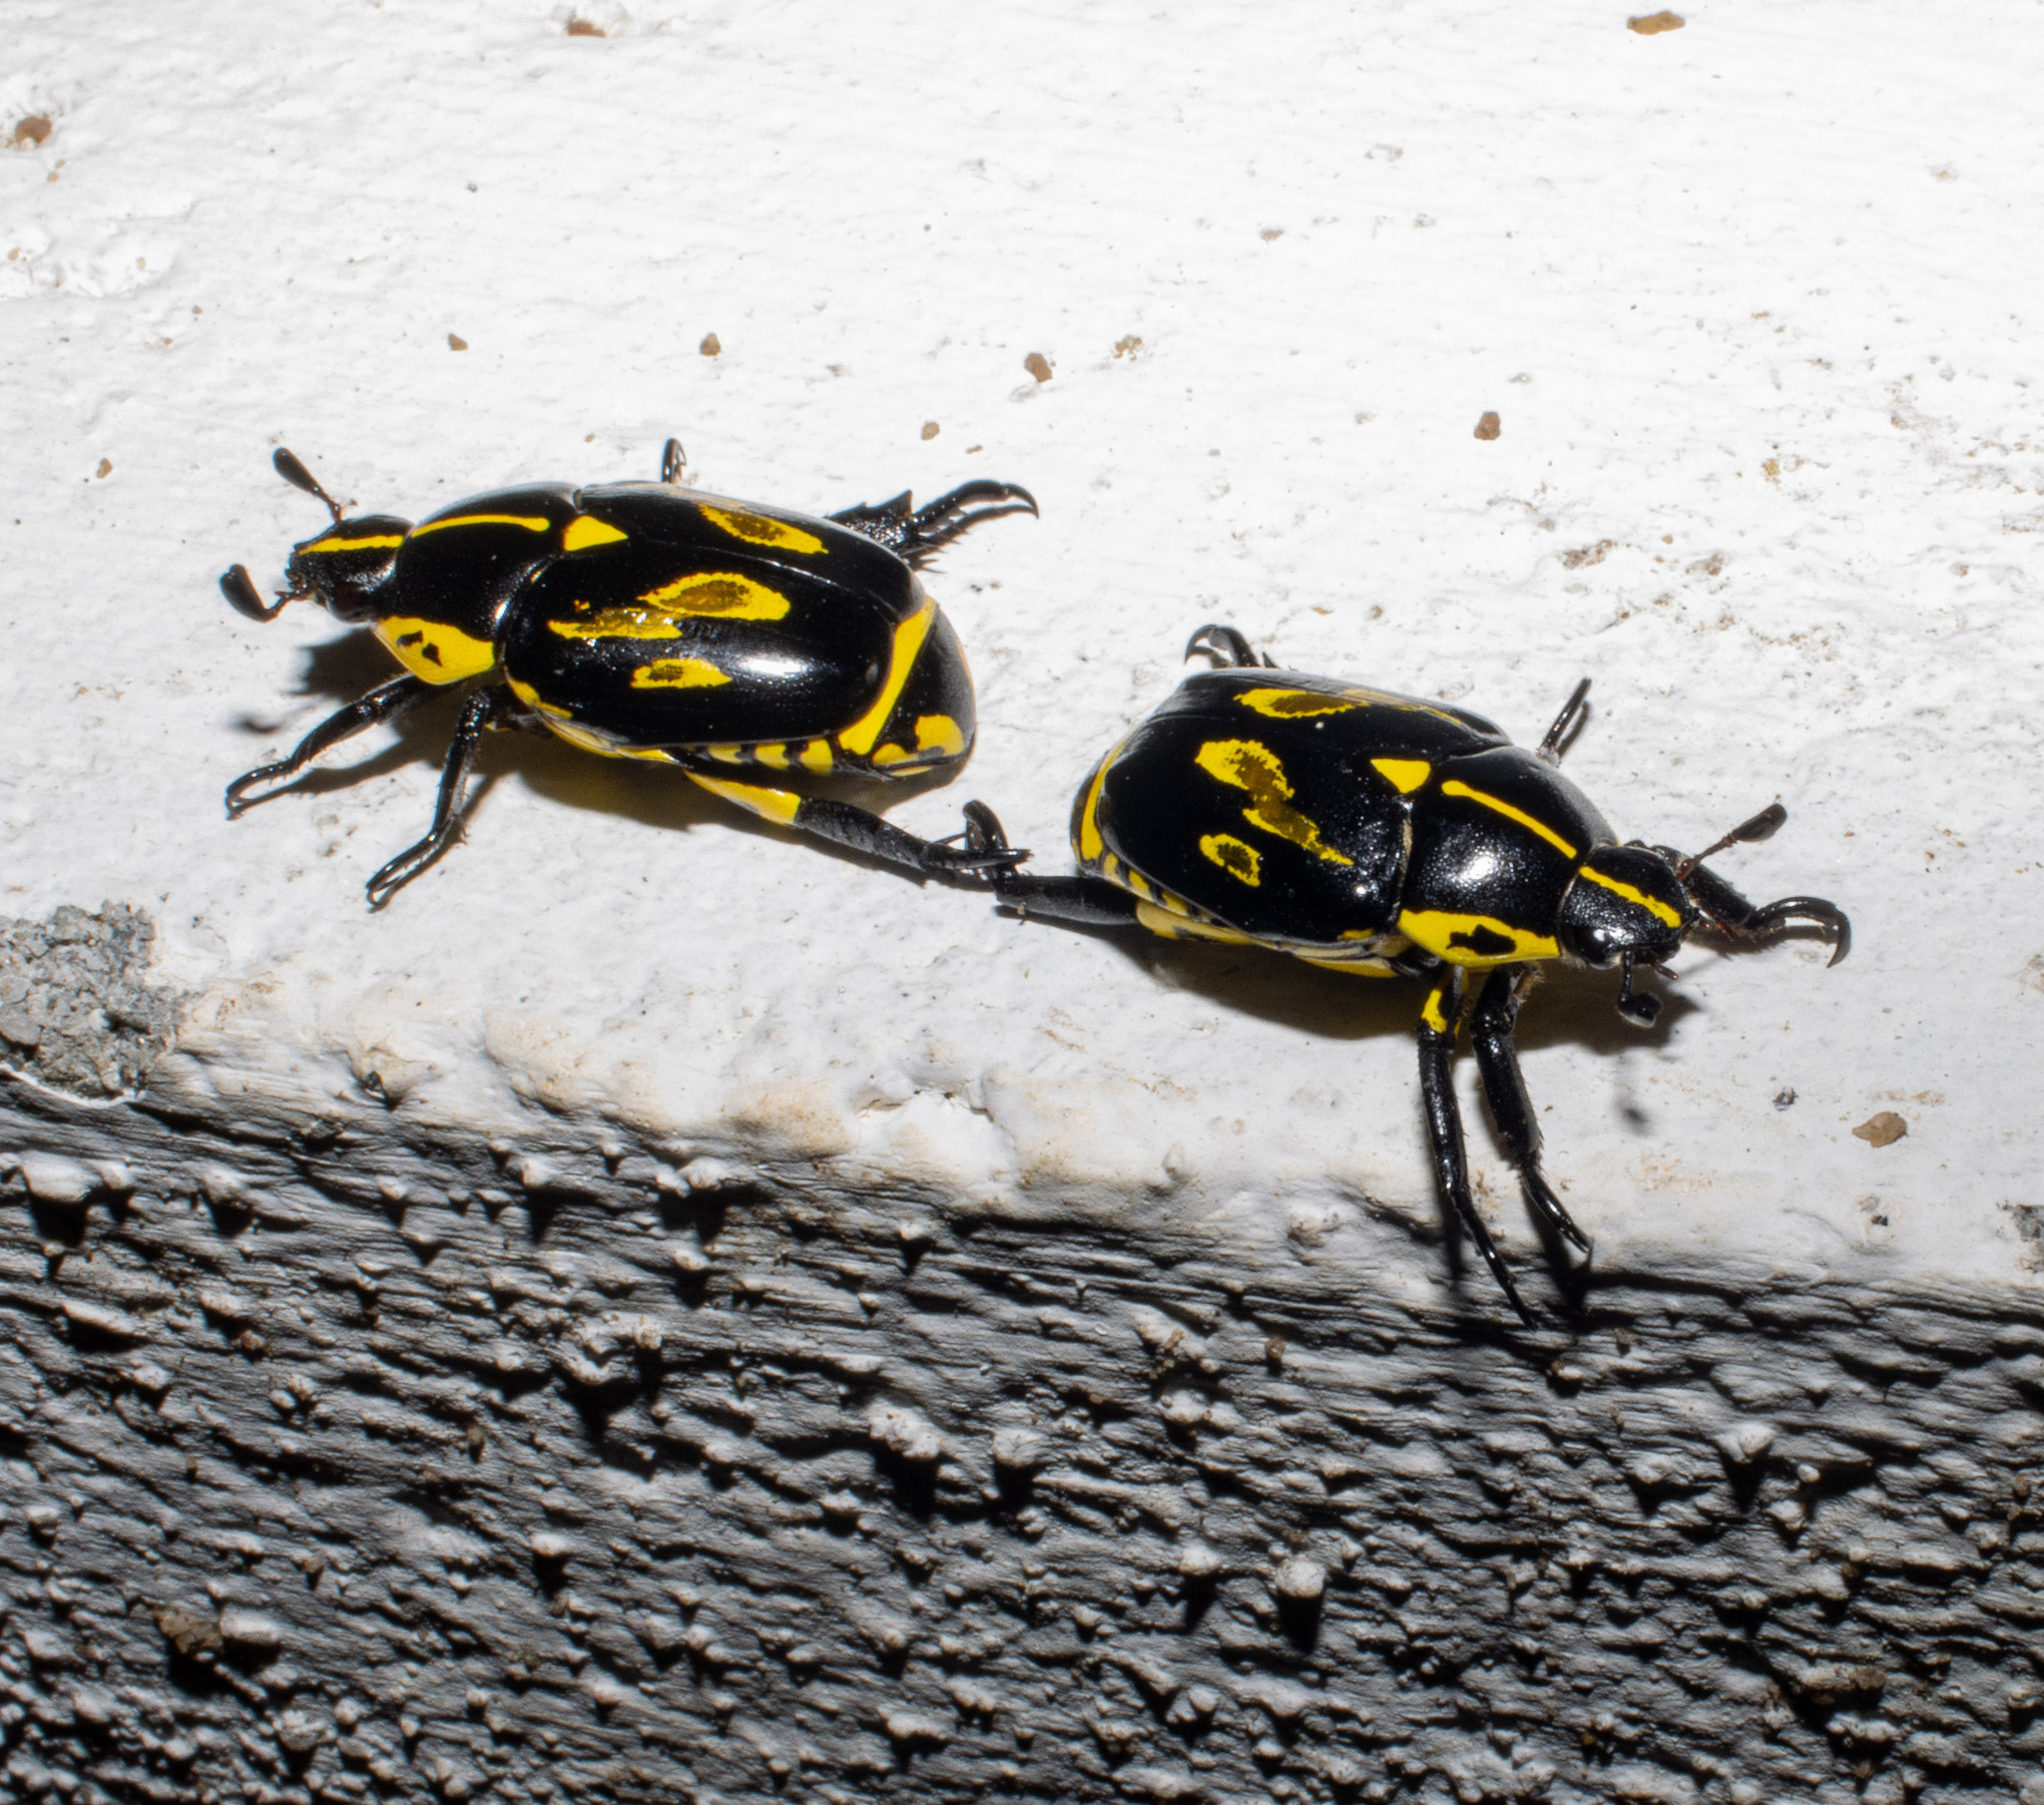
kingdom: Animalia
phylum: Arthropoda
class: Insecta
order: Coleoptera
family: Scarabaeidae
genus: Rutela
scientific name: Rutela lineola
